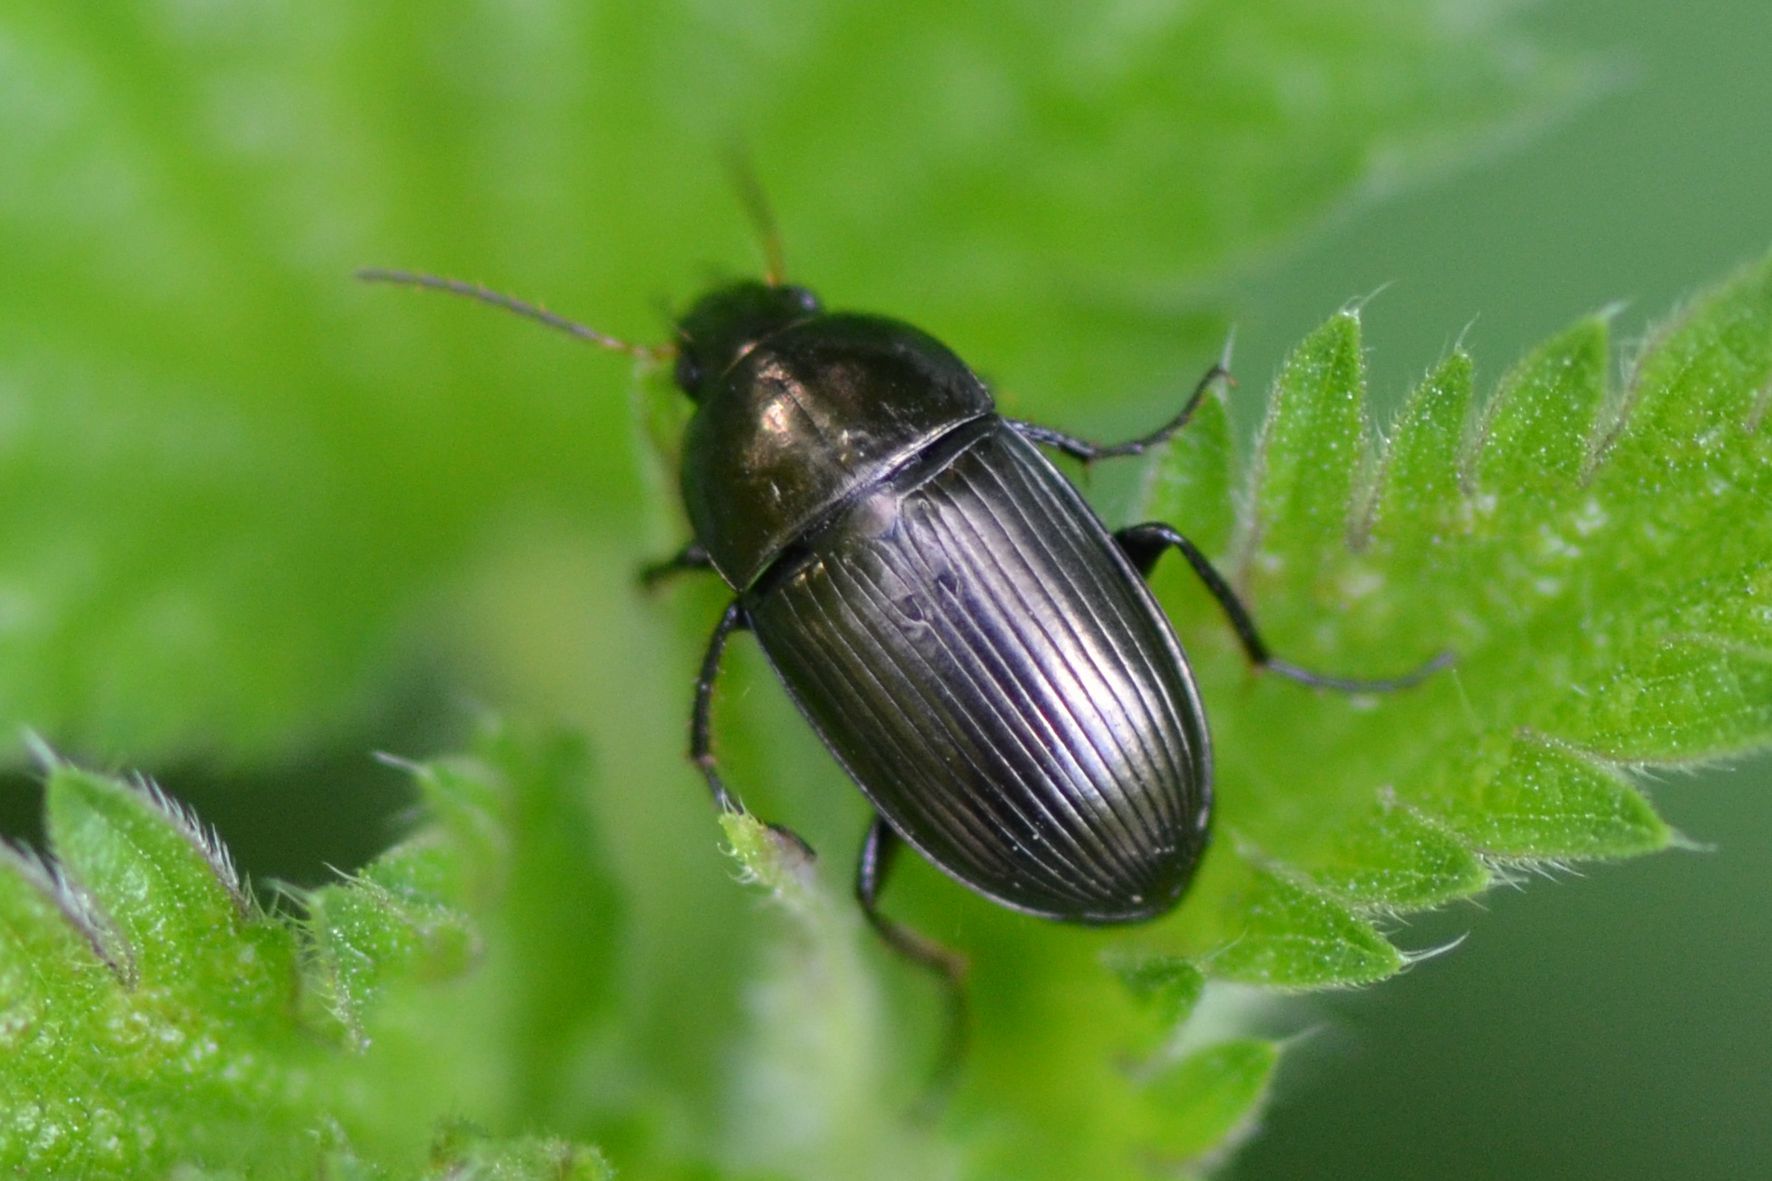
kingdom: Animalia
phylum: Arthropoda
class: Insecta
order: Coleoptera
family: Carabidae
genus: Amara
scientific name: Amara ovata
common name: Ovate harp ground beetle
